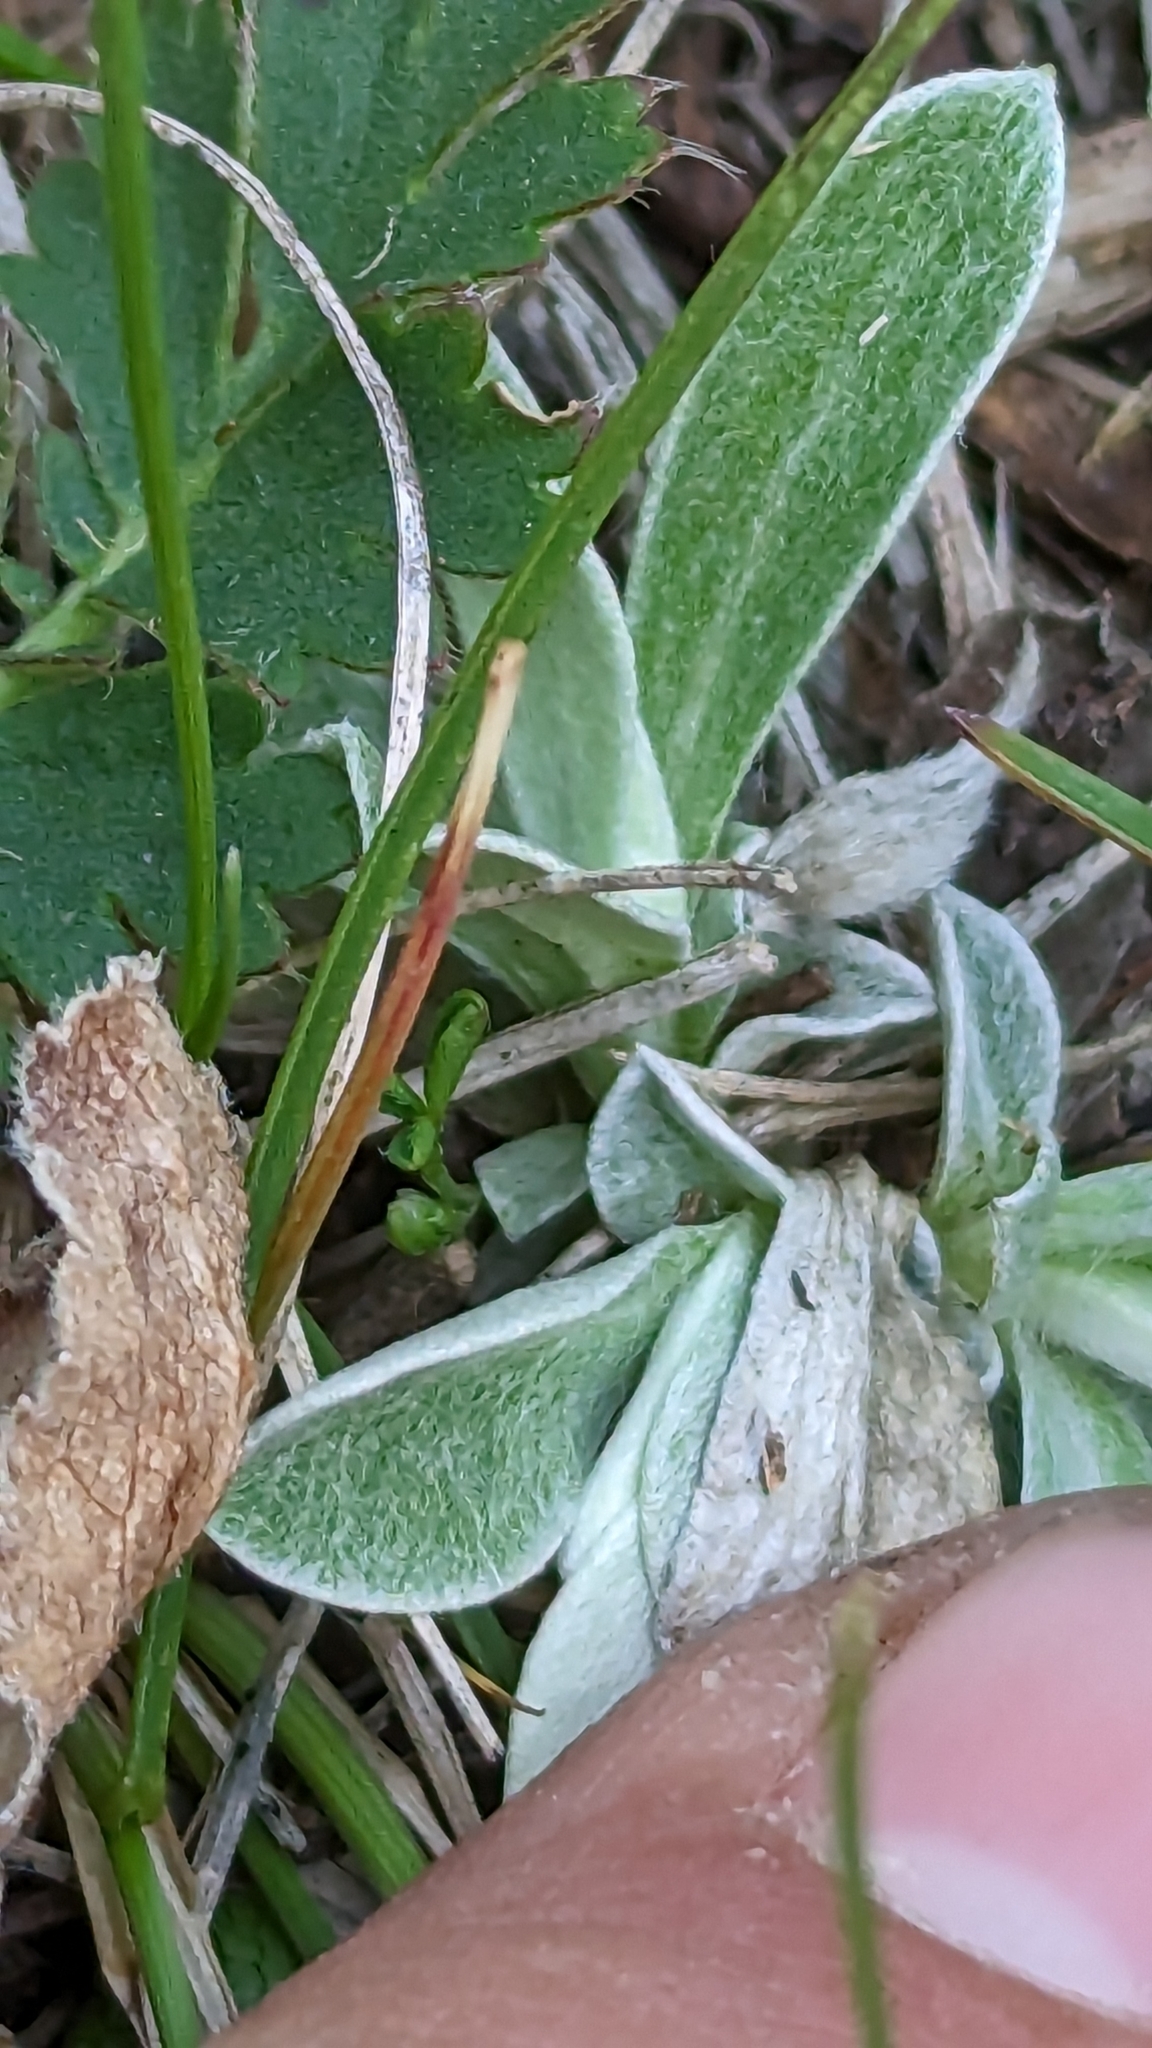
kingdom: Plantae
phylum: Tracheophyta
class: Magnoliopsida
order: Asterales
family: Asteraceae
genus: Antennaria
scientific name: Antennaria neglecta
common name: Field pussytoes
